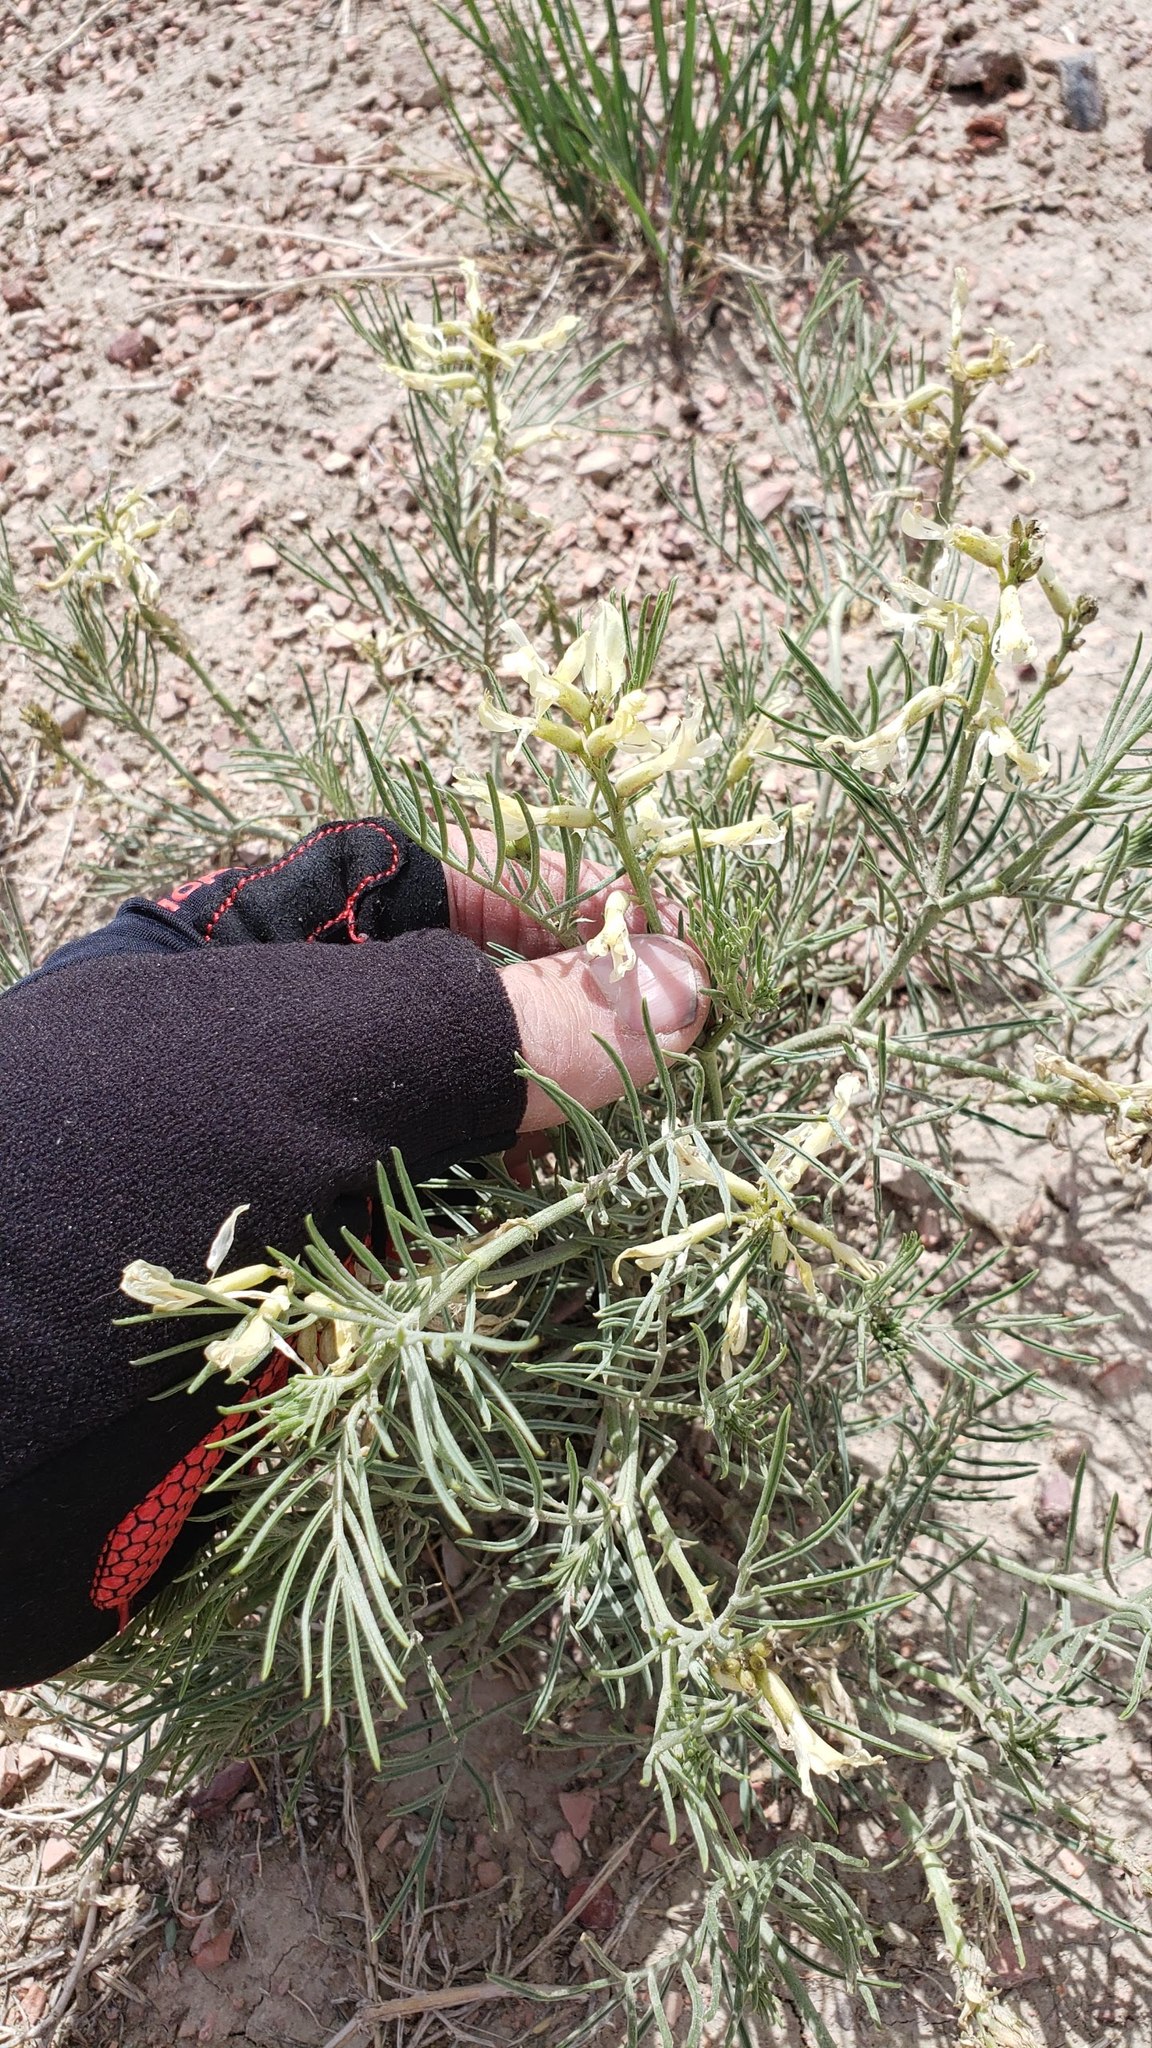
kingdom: Plantae
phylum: Tracheophyta
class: Magnoliopsida
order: Fabales
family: Fabaceae
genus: Astragalus
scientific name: Astragalus pectinatus
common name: Tine-leaf milk-vetch
